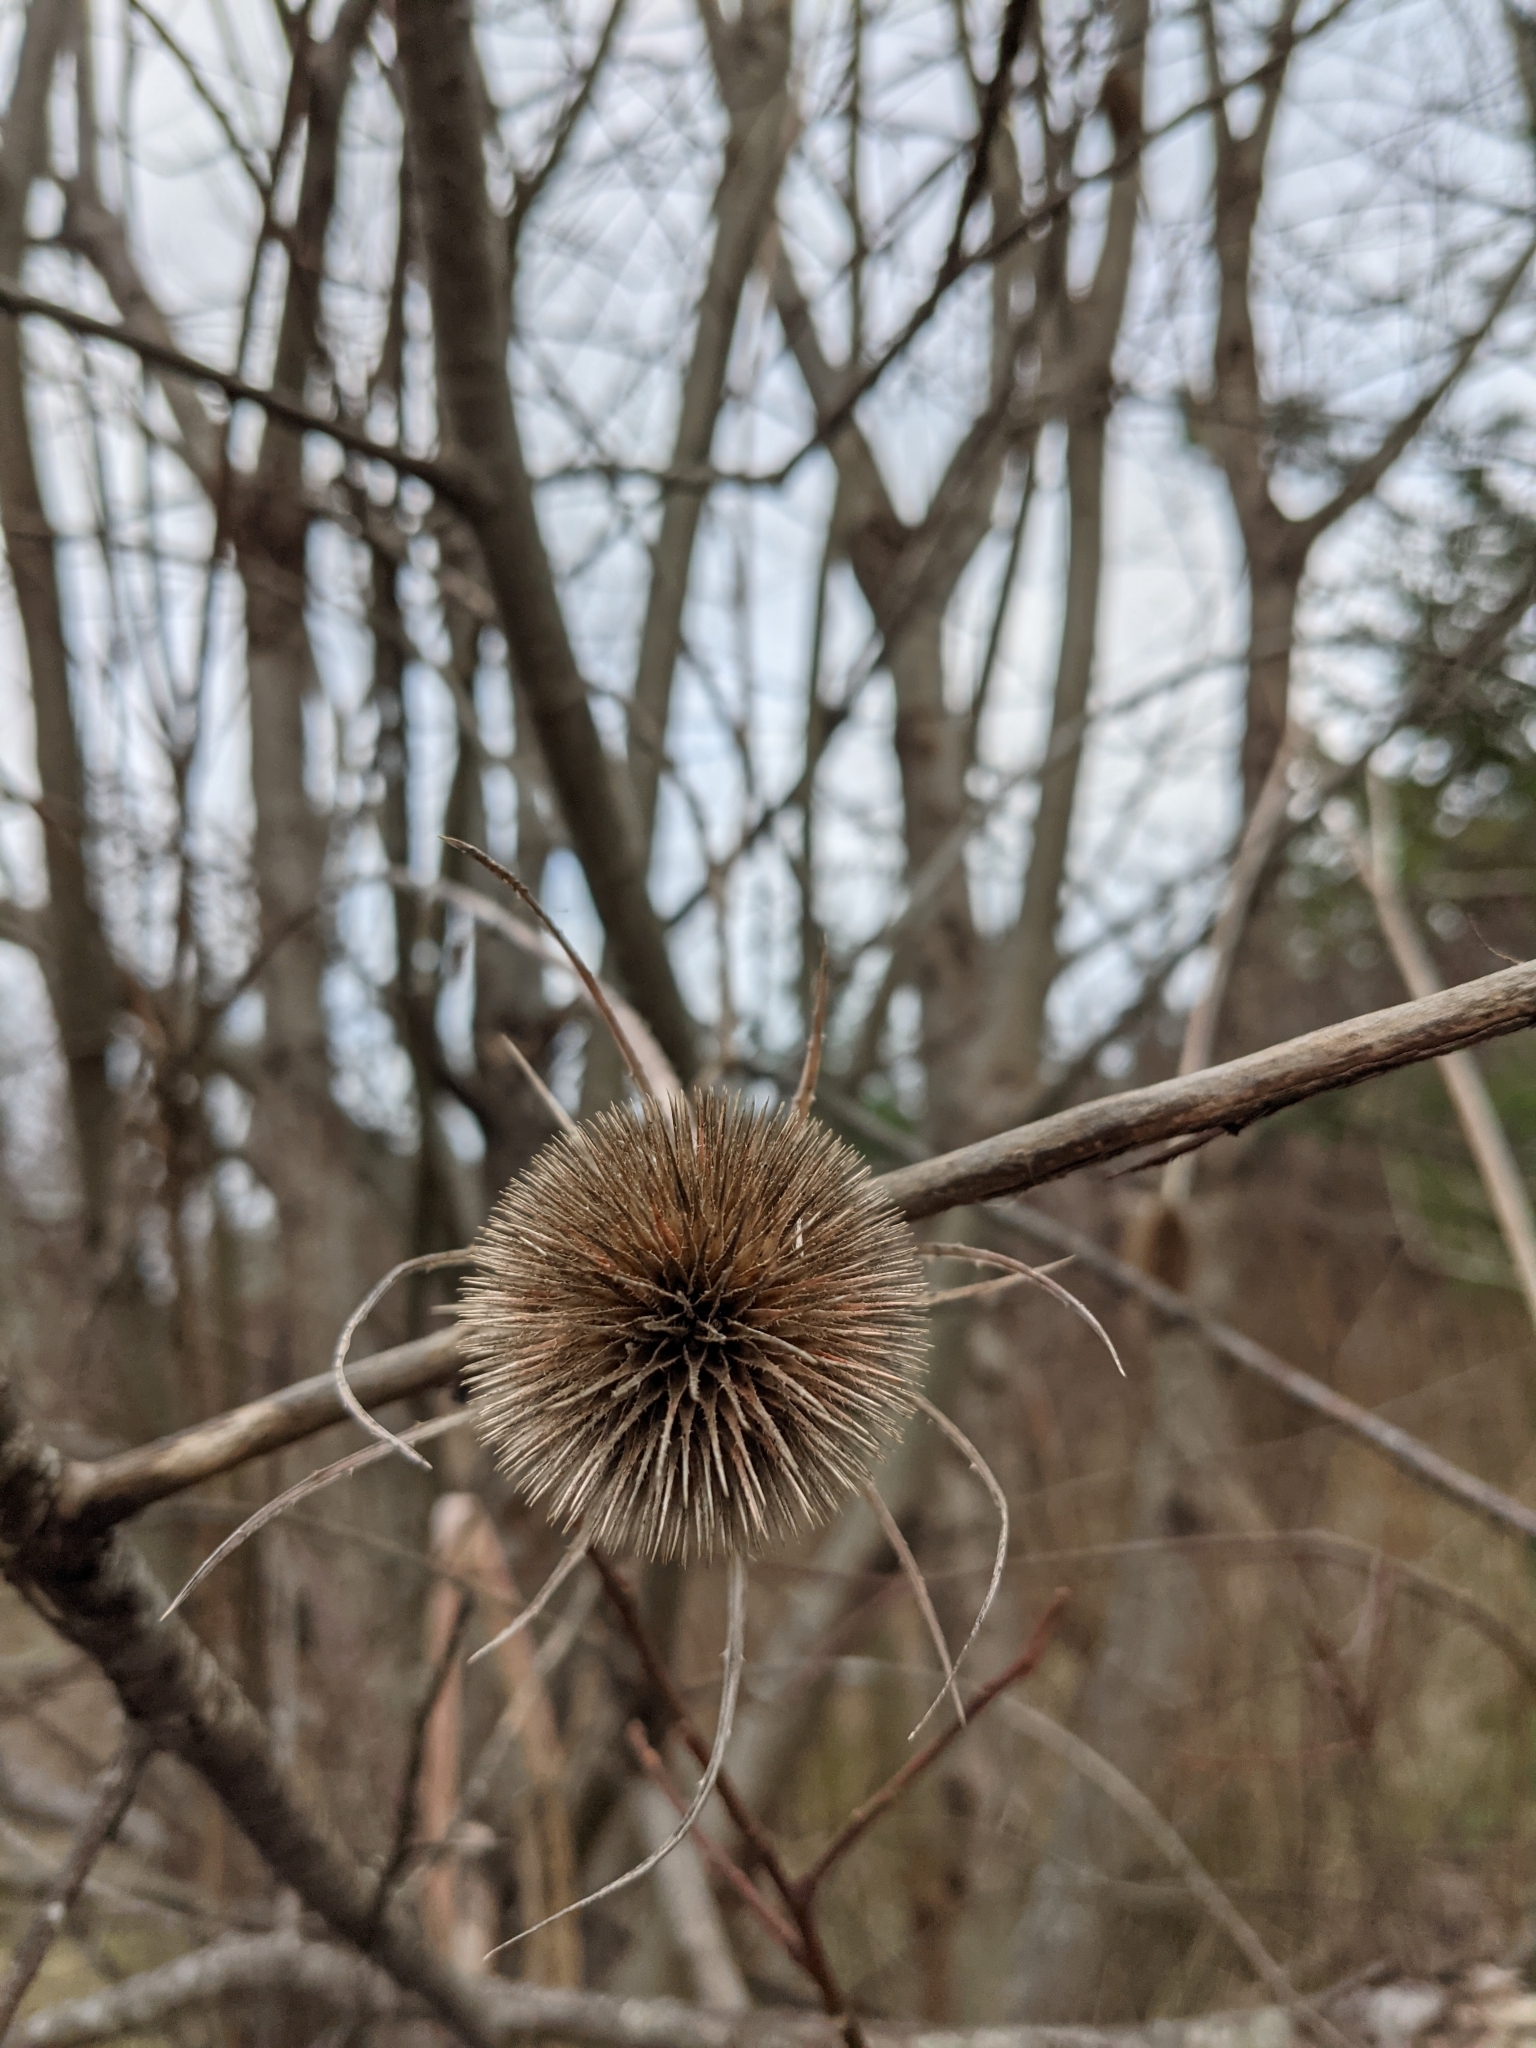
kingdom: Plantae
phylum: Tracheophyta
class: Magnoliopsida
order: Dipsacales
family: Caprifoliaceae
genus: Dipsacus
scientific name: Dipsacus fullonum
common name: Teasel
